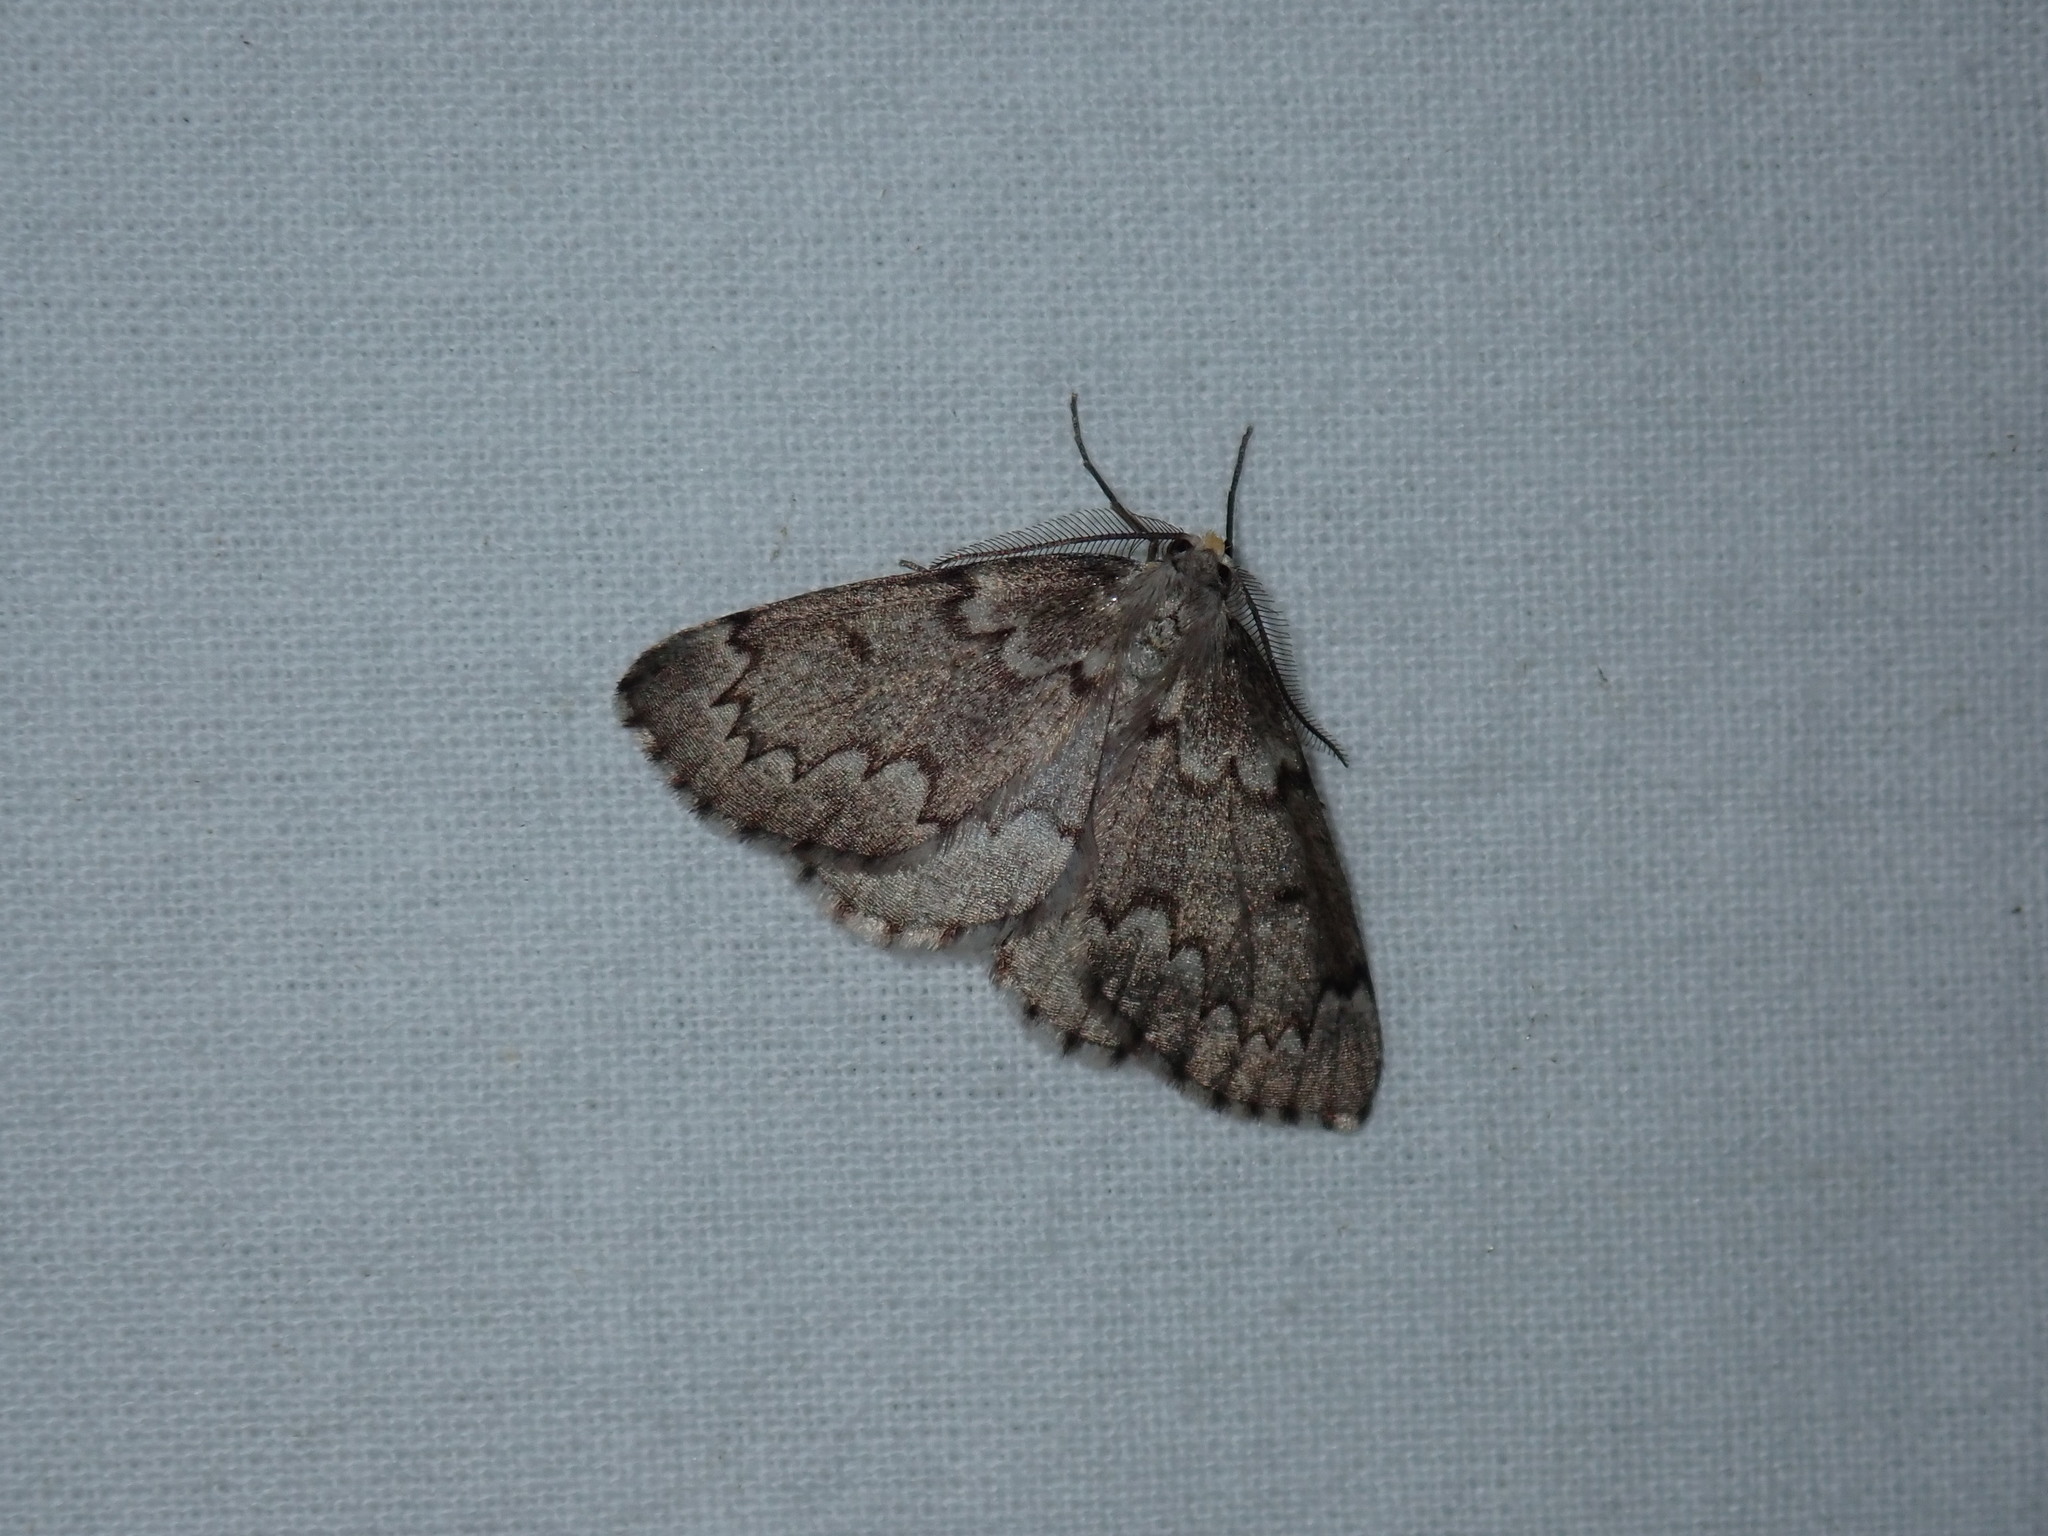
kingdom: Animalia
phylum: Arthropoda
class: Insecta
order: Lepidoptera
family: Geometridae
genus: Nepytia
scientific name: Nepytia canosaria
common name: False hemlock looper
